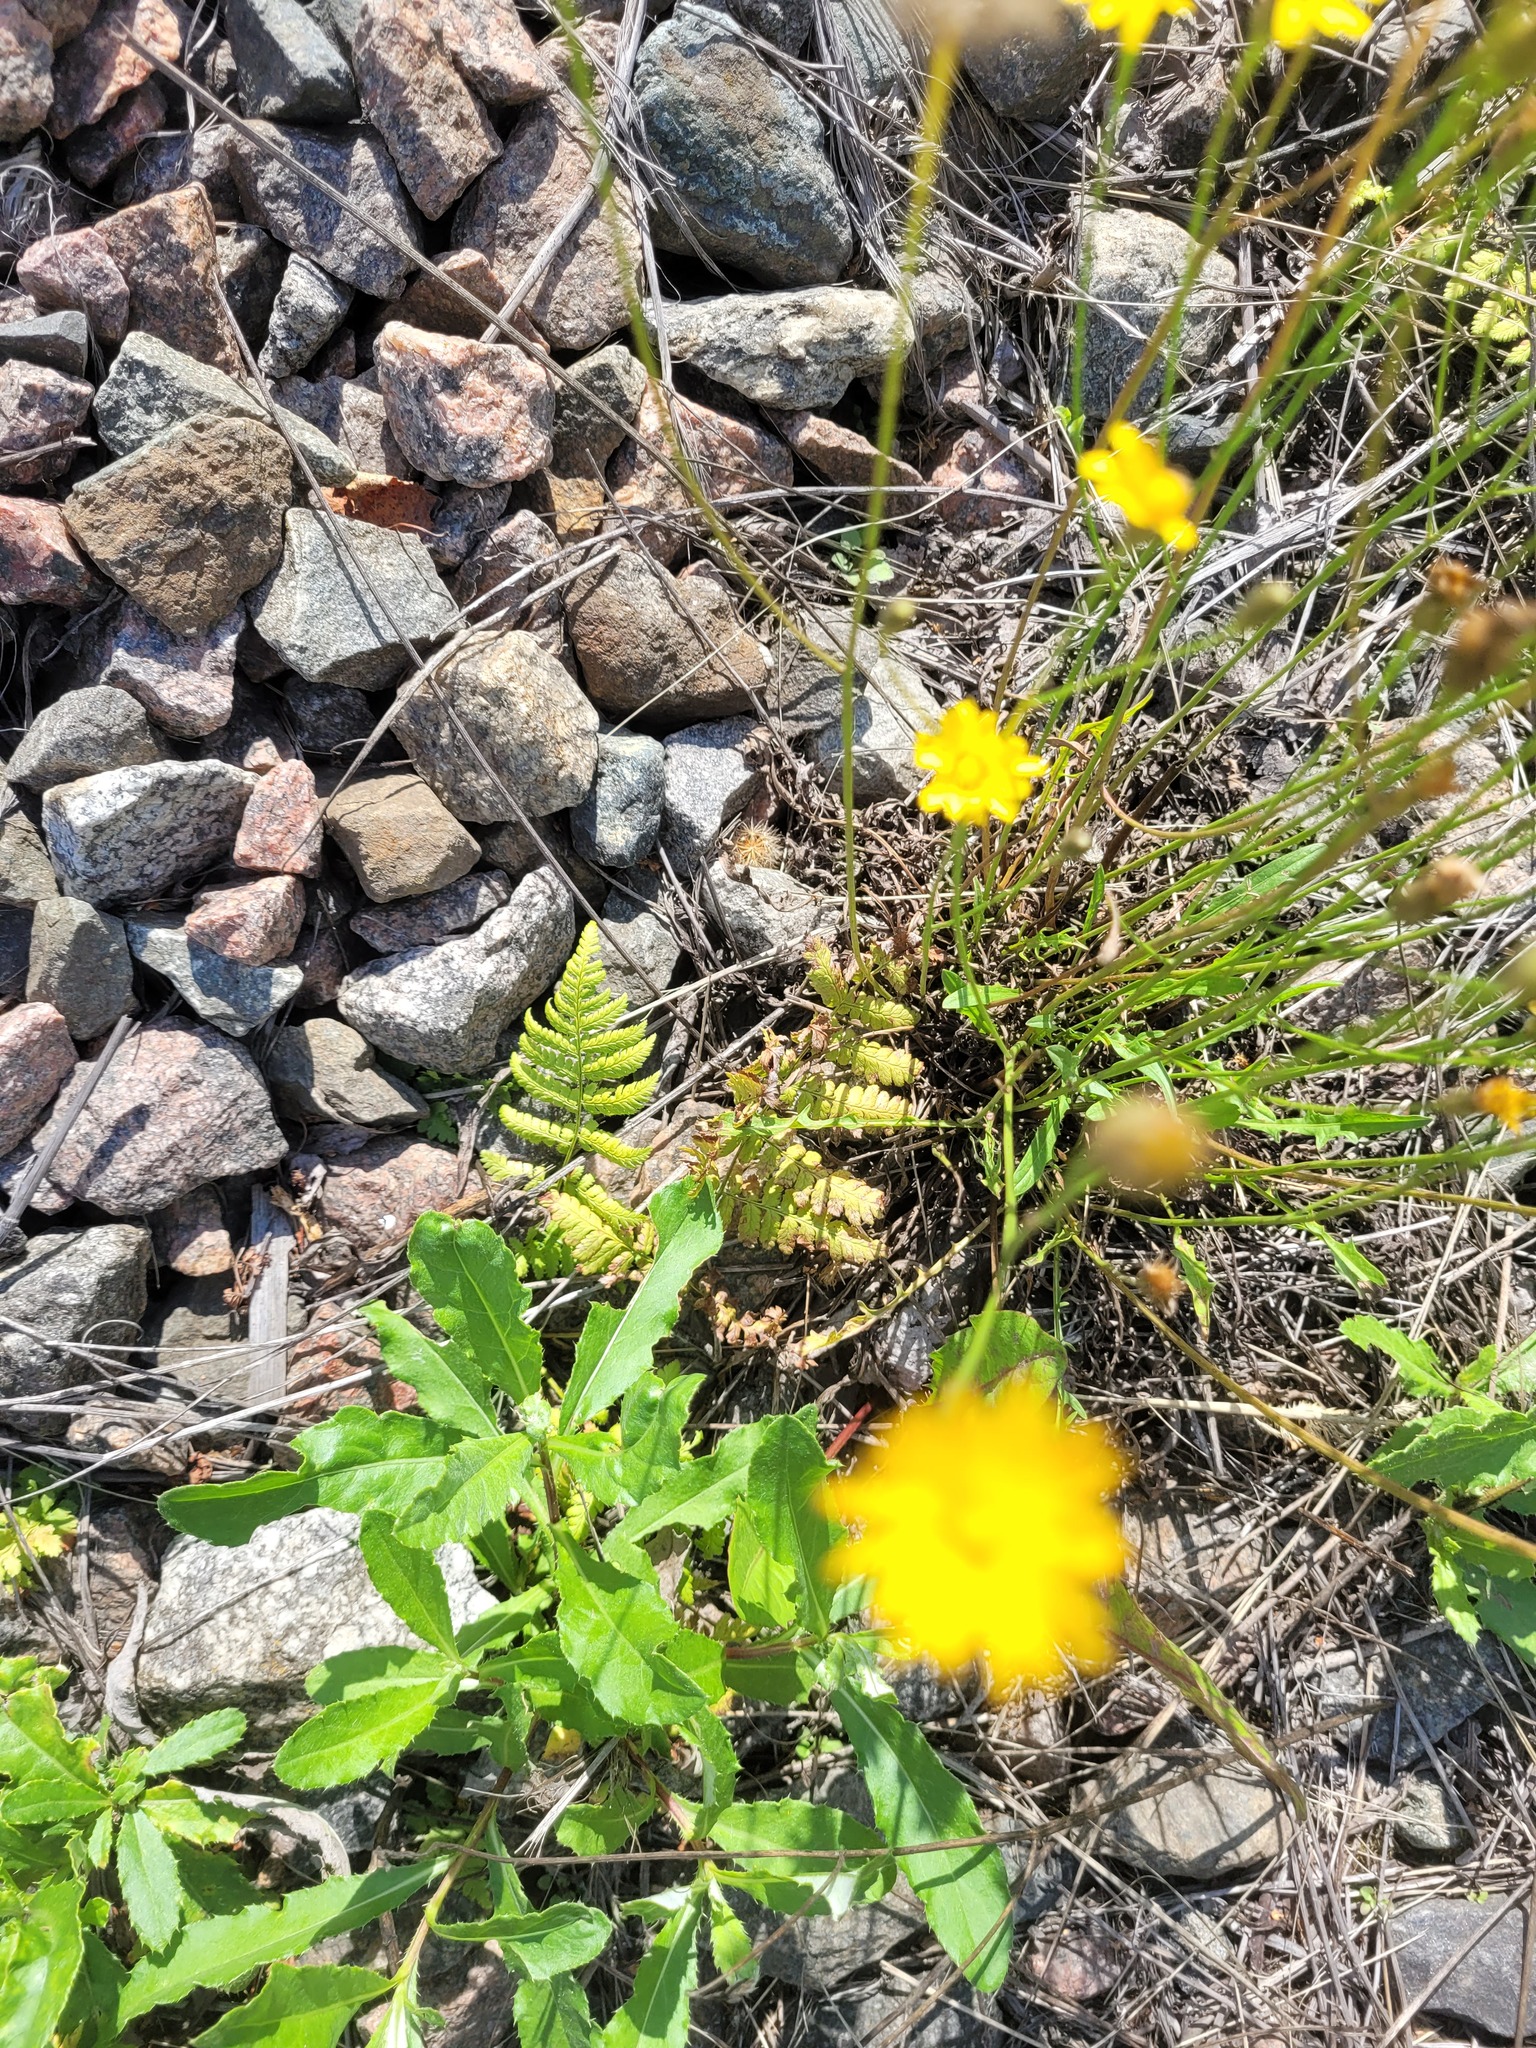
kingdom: Plantae
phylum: Tracheophyta
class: Polypodiopsida
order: Polypodiales
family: Dryopteridaceae
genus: Dryopteris
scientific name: Dryopteris carthusiana
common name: Narrow buckler-fern
